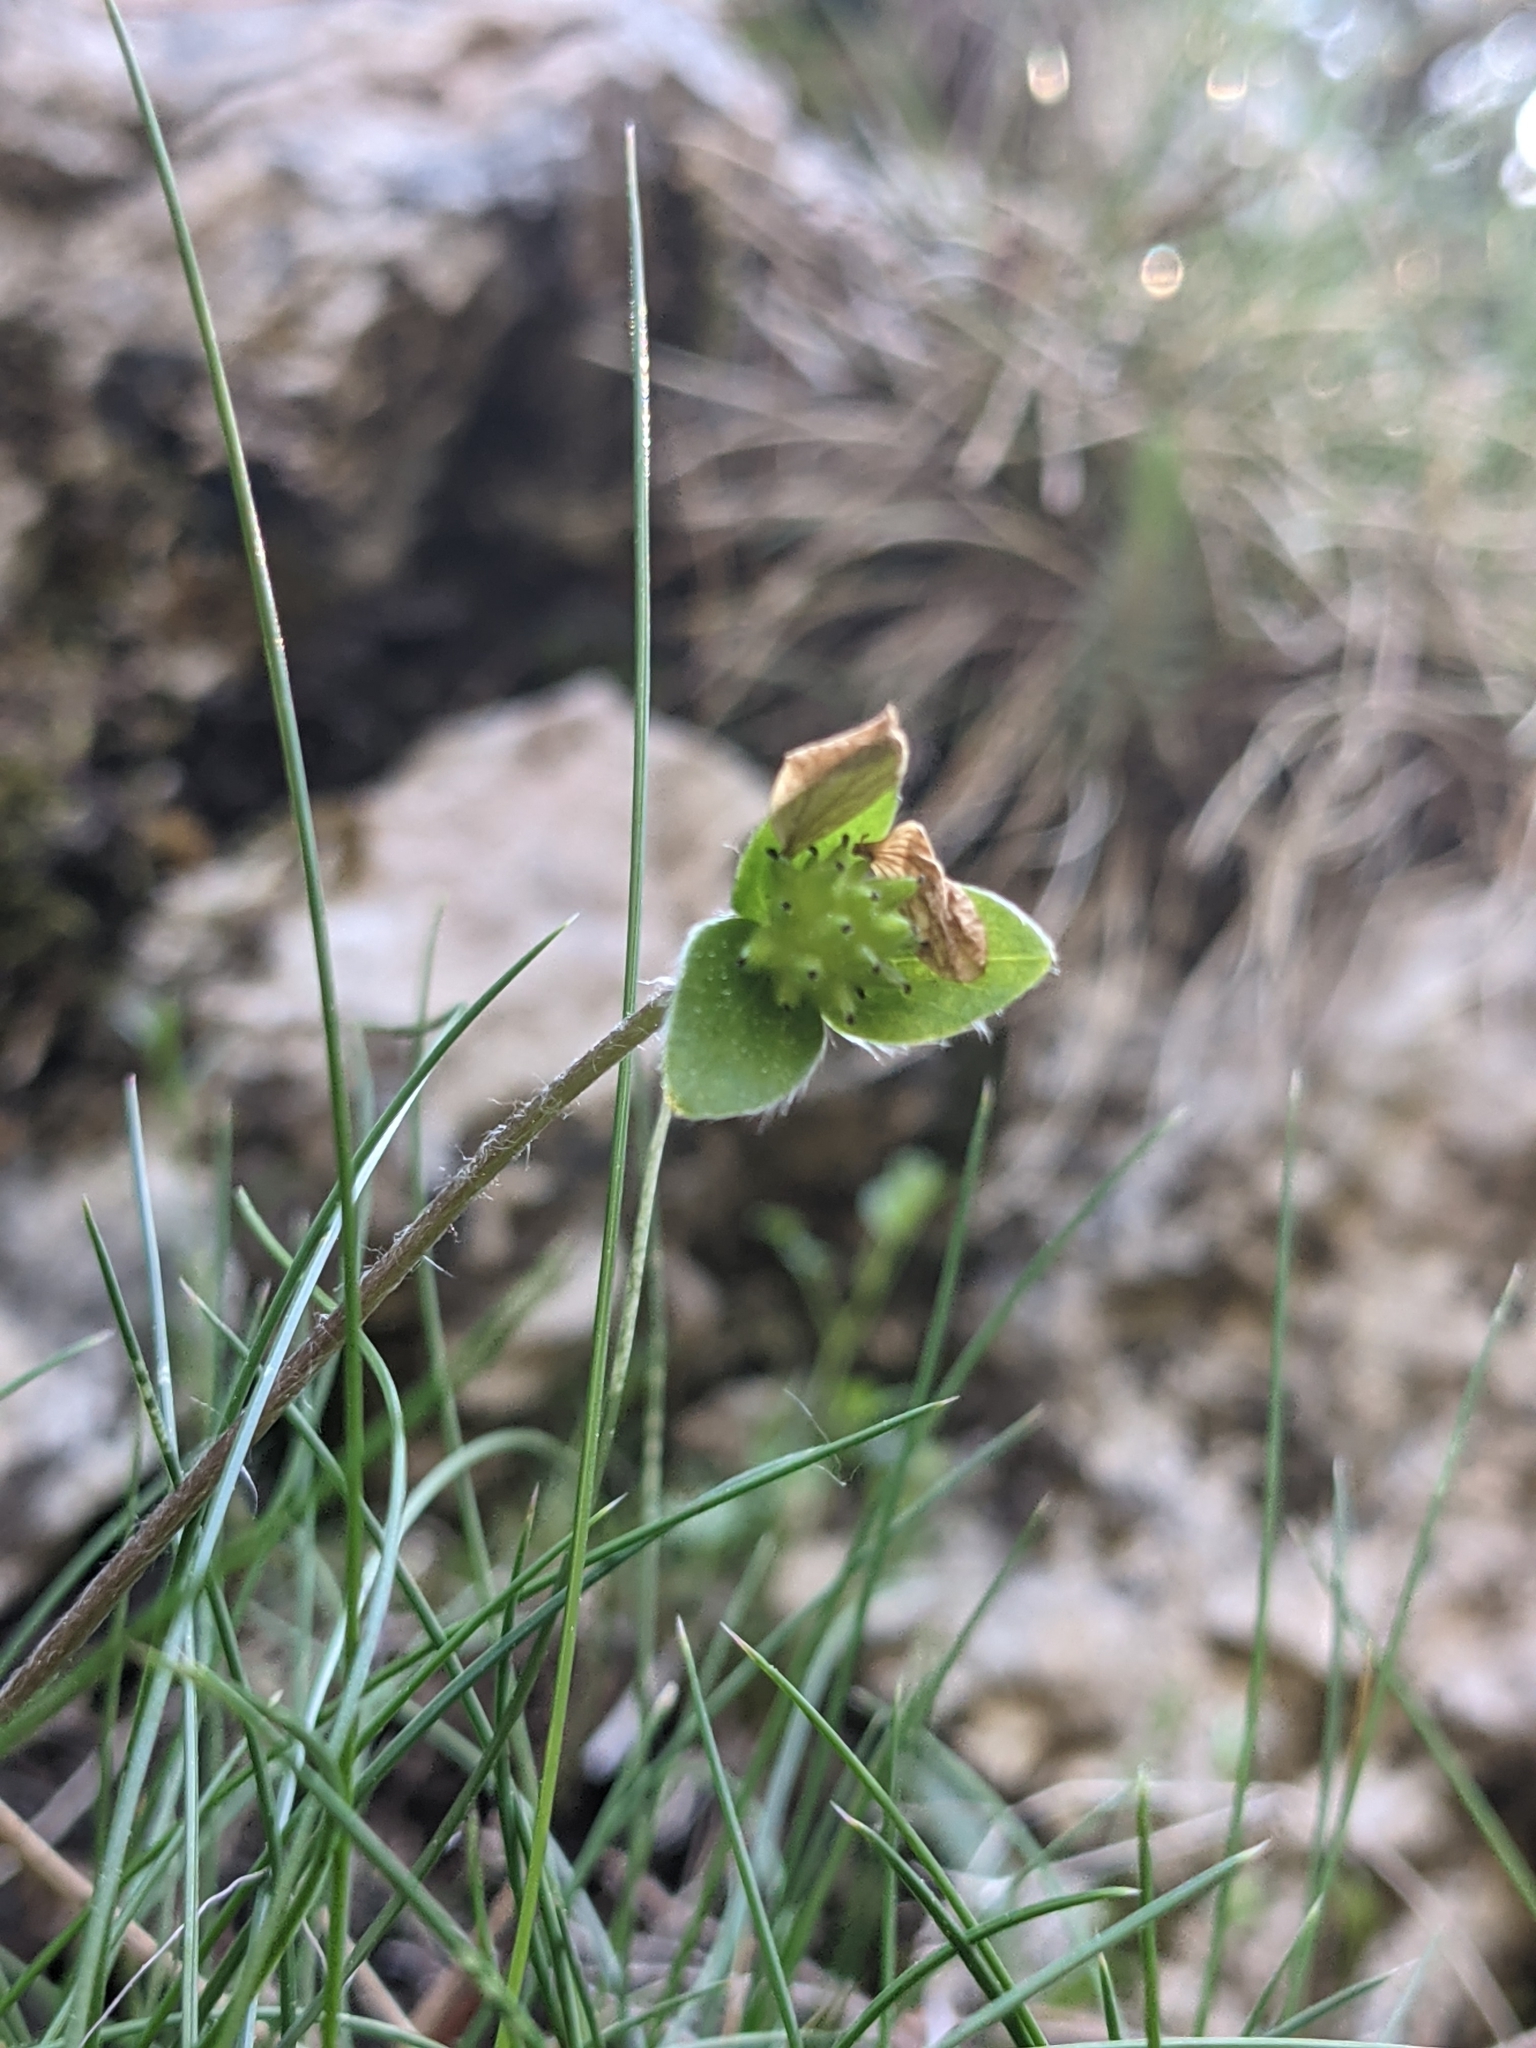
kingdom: Plantae
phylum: Tracheophyta
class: Magnoliopsida
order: Ranunculales
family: Ranunculaceae
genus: Hepatica
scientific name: Hepatica nobilis
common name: Liverleaf
